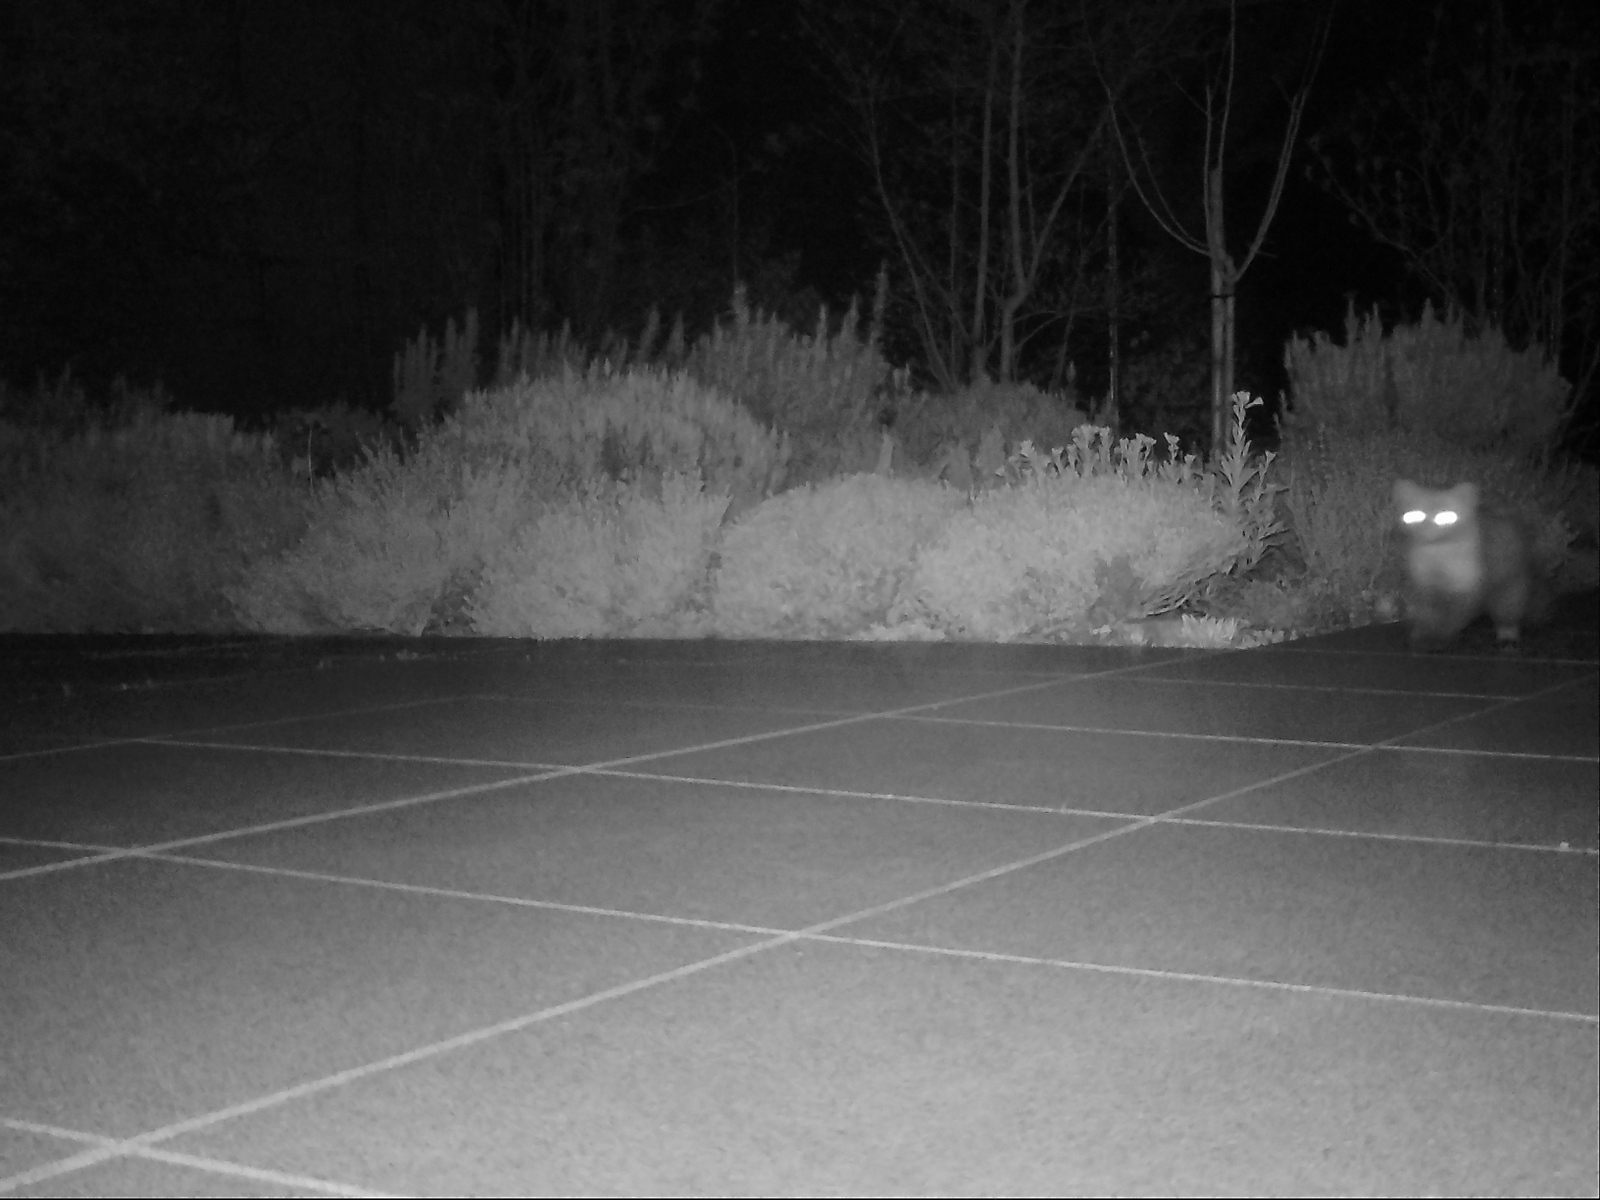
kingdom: Animalia
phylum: Chordata
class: Mammalia
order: Carnivora
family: Mustelidae
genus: Martes
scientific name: Martes foina
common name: Beech marten
